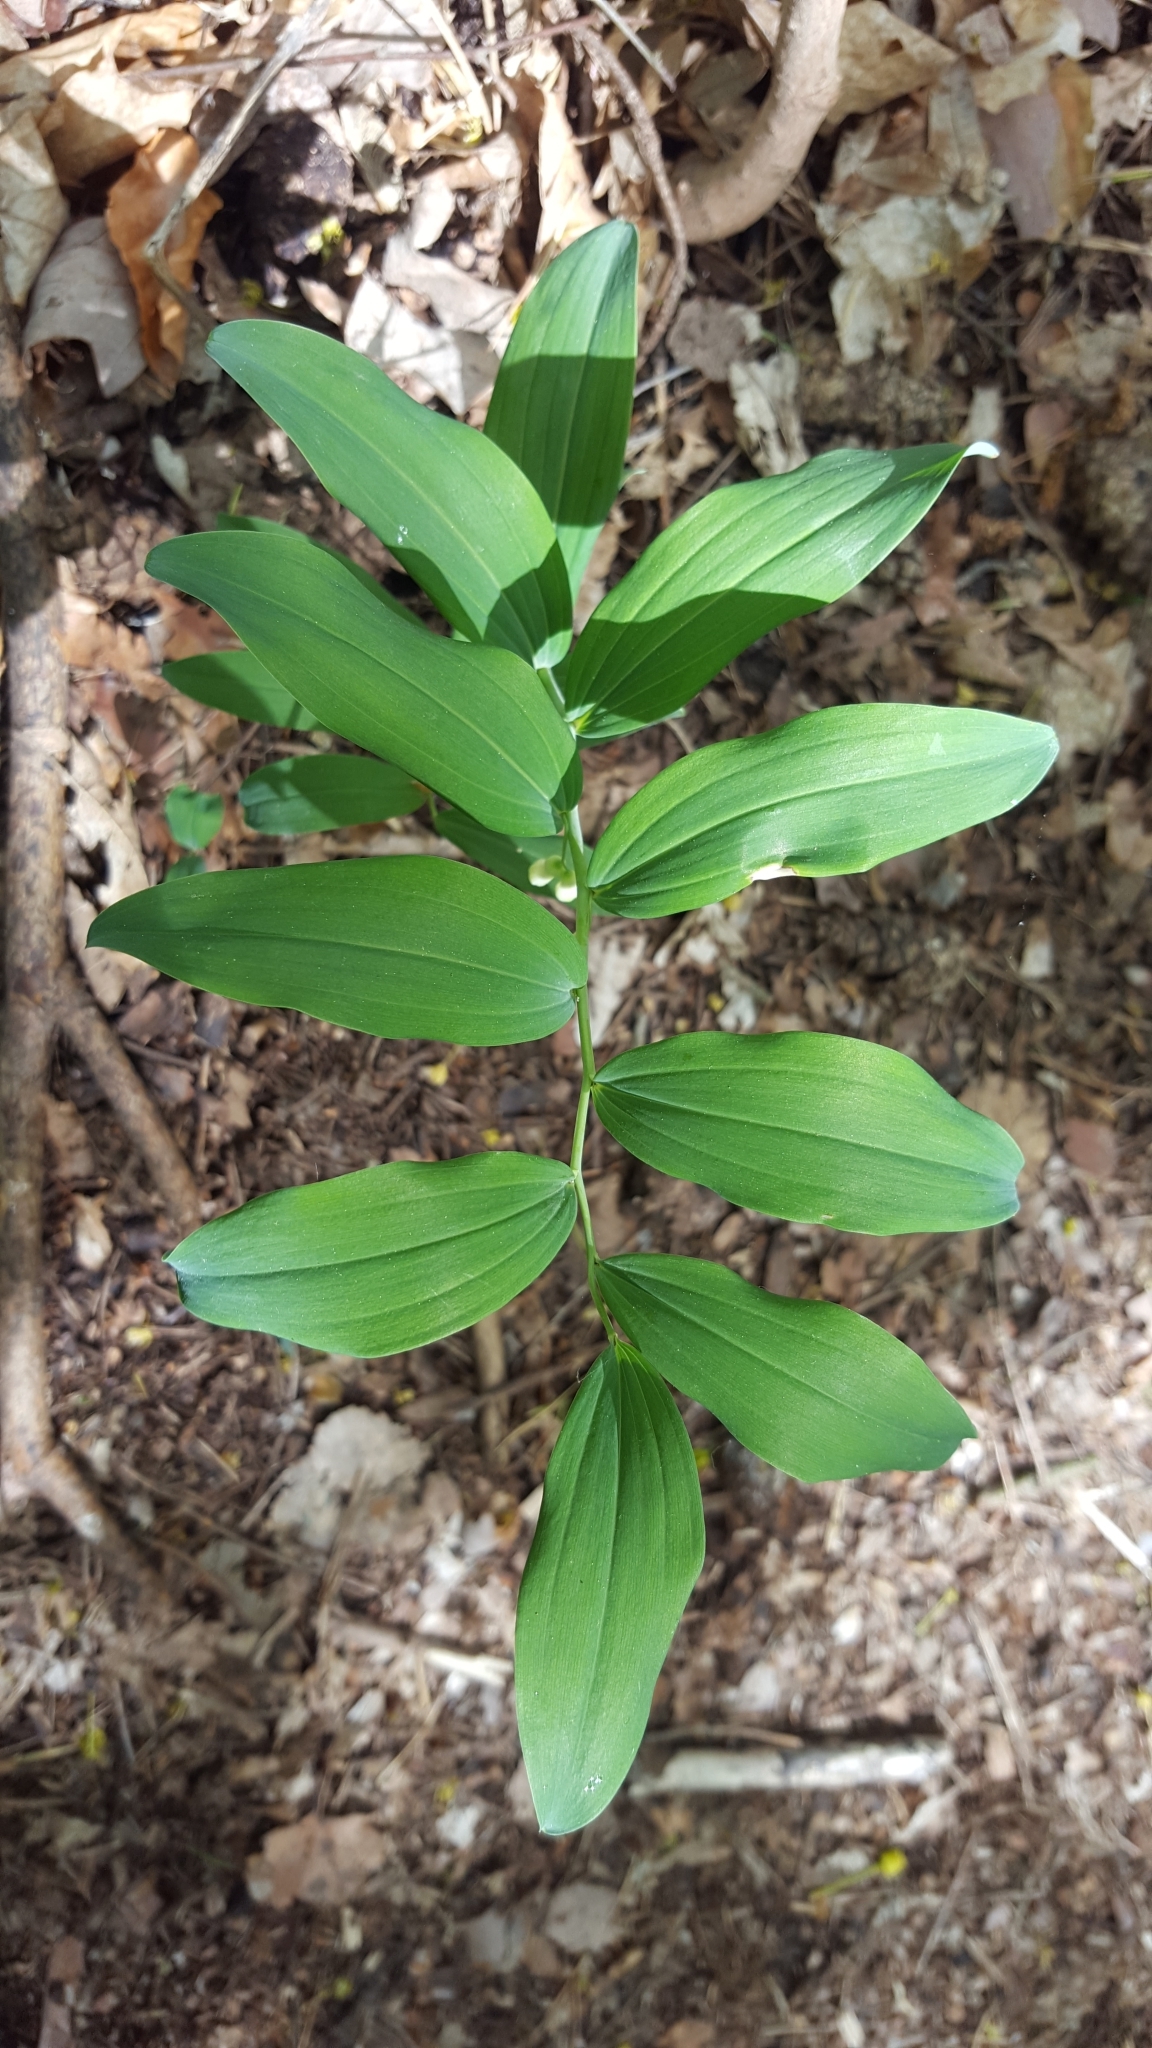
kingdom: Plantae
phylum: Tracheophyta
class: Liliopsida
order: Asparagales
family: Asparagaceae
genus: Polygonatum
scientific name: Polygonatum multiflorum
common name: Solomon's-seal
